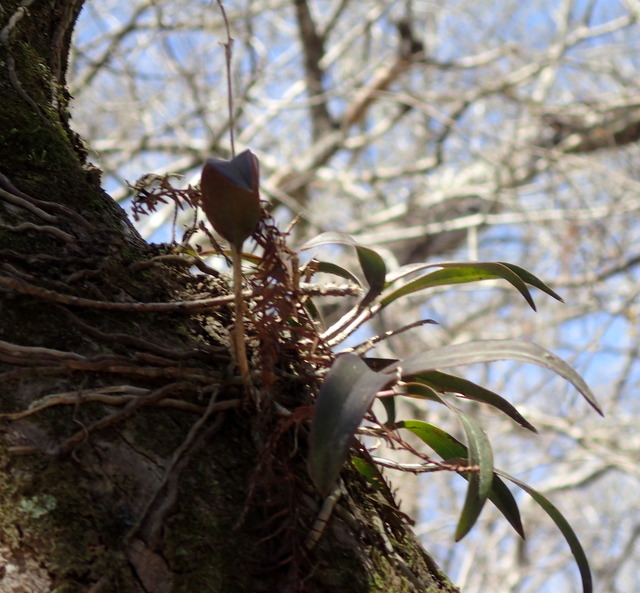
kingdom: Plantae
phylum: Tracheophyta
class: Liliopsida
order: Asparagales
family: Orchidaceae
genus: Epidendrum
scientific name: Epidendrum conopseum
